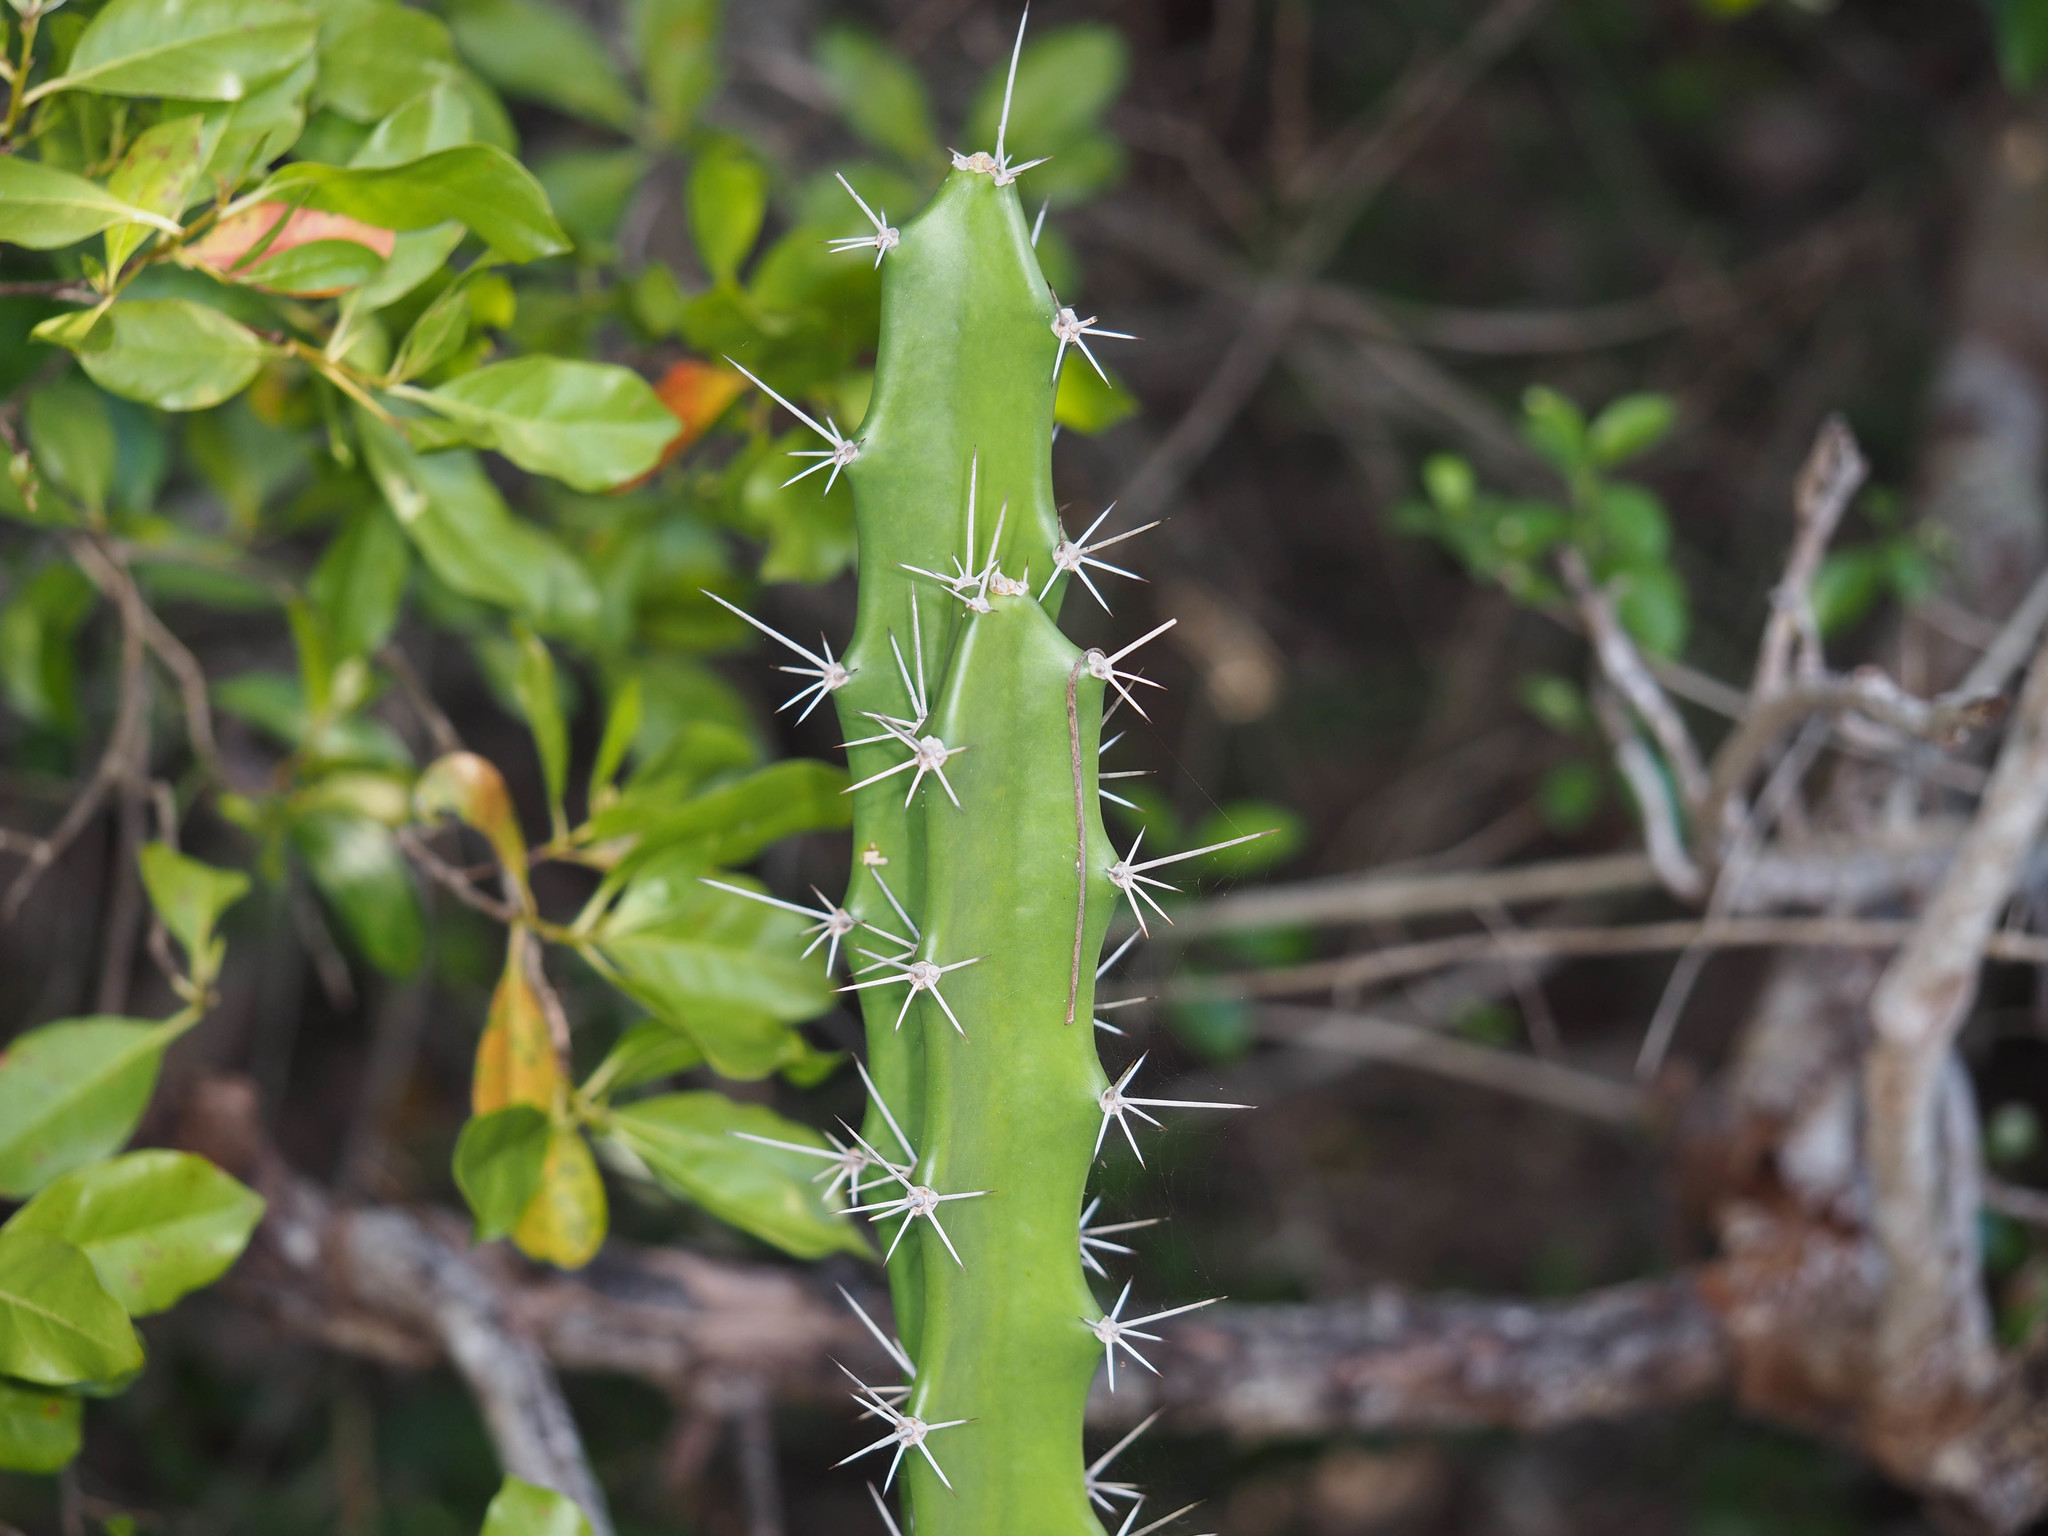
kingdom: Plantae
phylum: Tracheophyta
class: Magnoliopsida
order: Caryophyllales
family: Cactaceae
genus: Acanthocereus
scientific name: Acanthocereus tetragonus
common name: Triangle cactus
